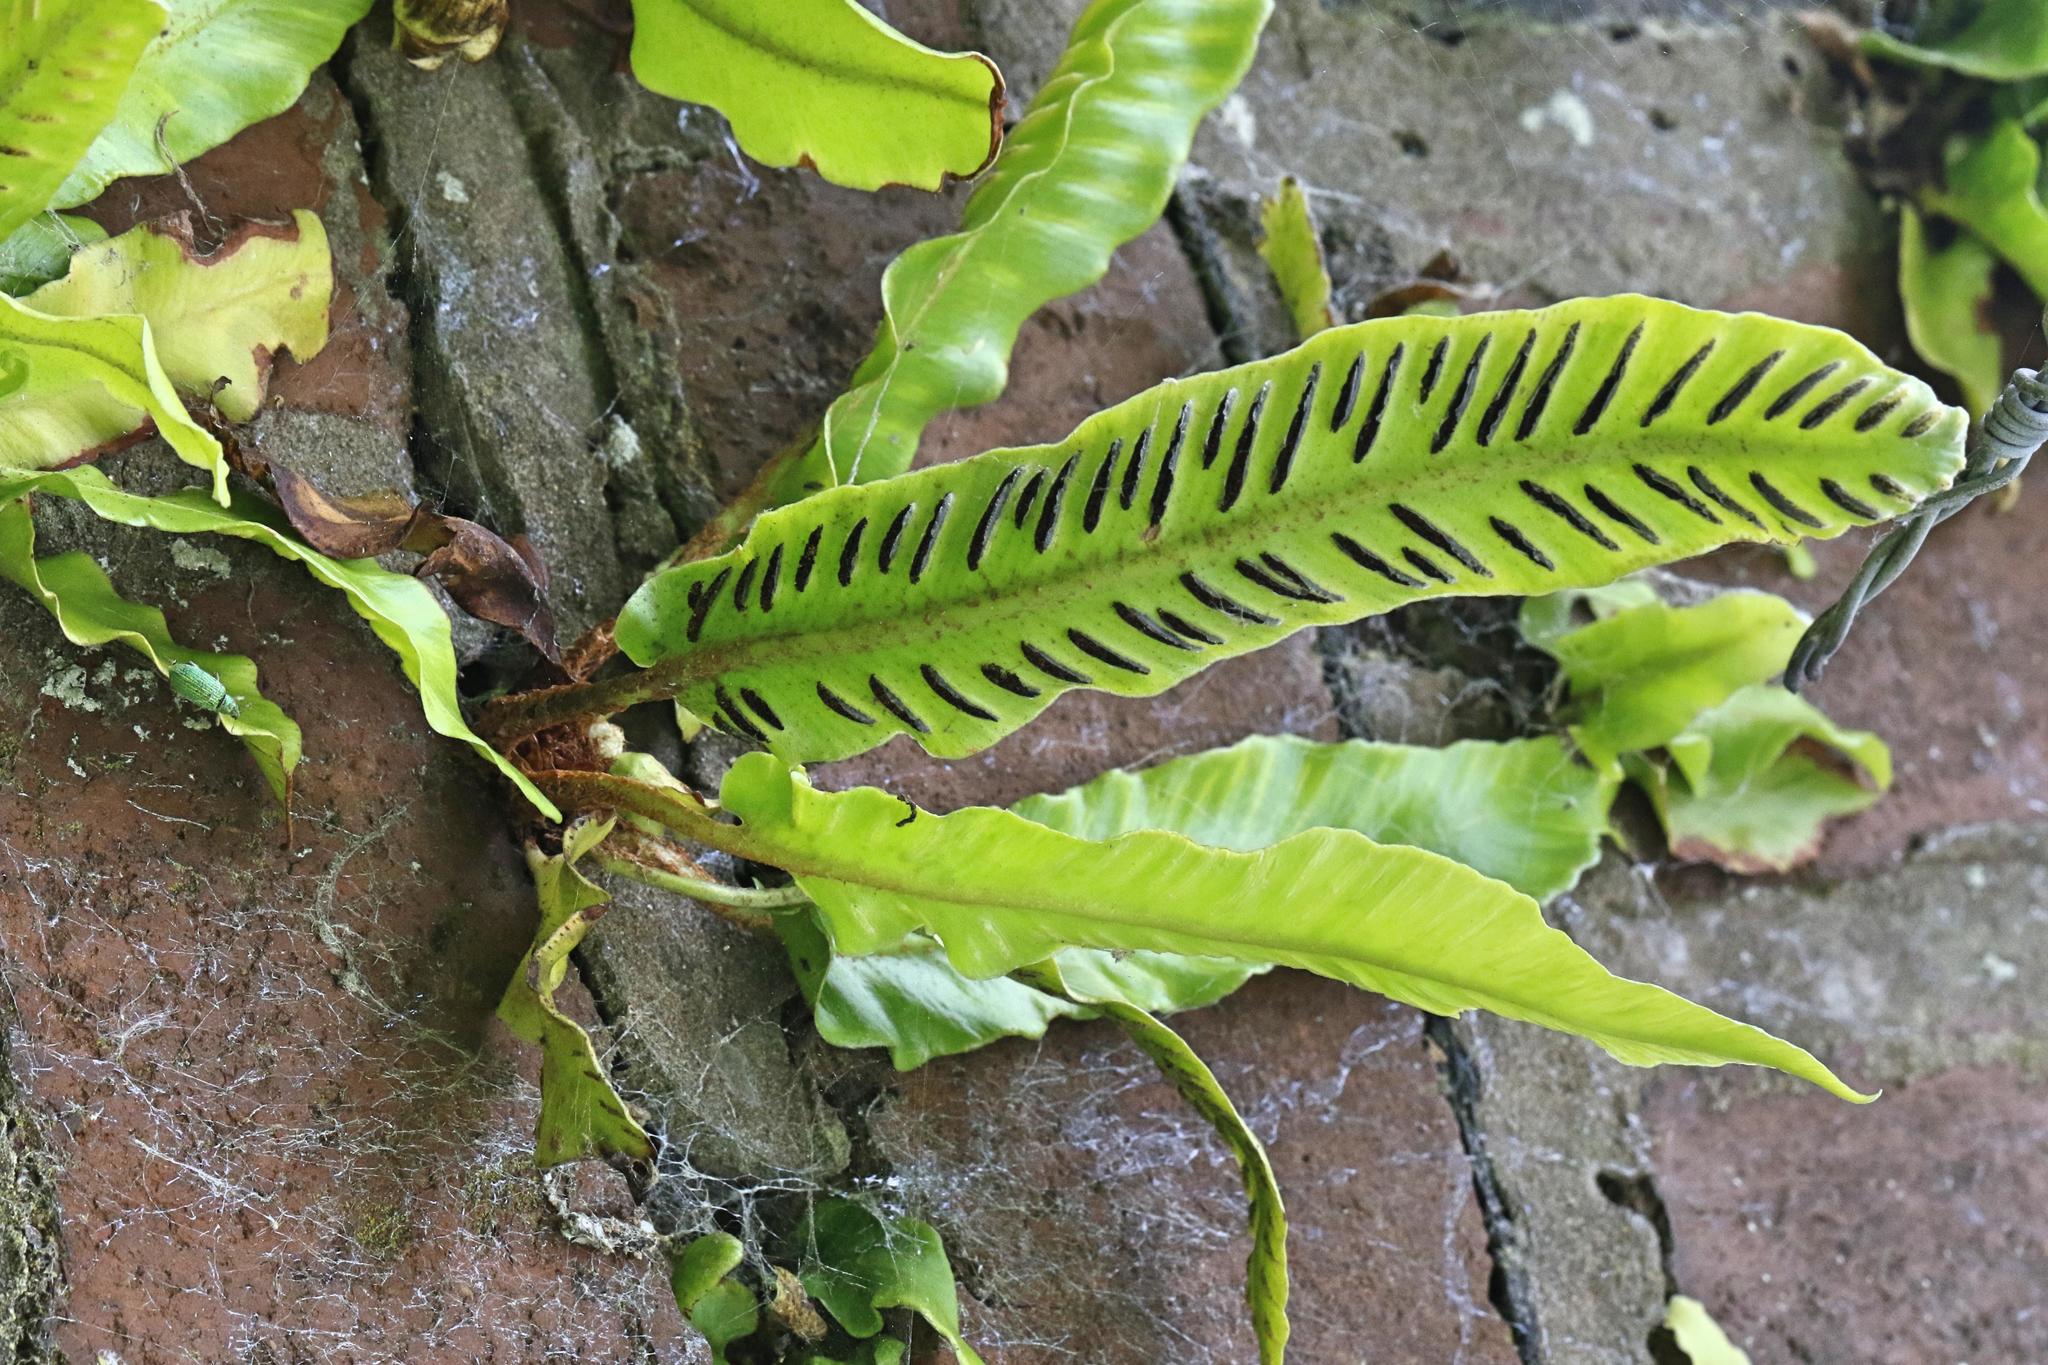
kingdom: Plantae
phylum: Tracheophyta
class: Polypodiopsida
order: Polypodiales
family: Aspleniaceae
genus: Asplenium
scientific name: Asplenium scolopendrium
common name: Hart's-tongue fern
